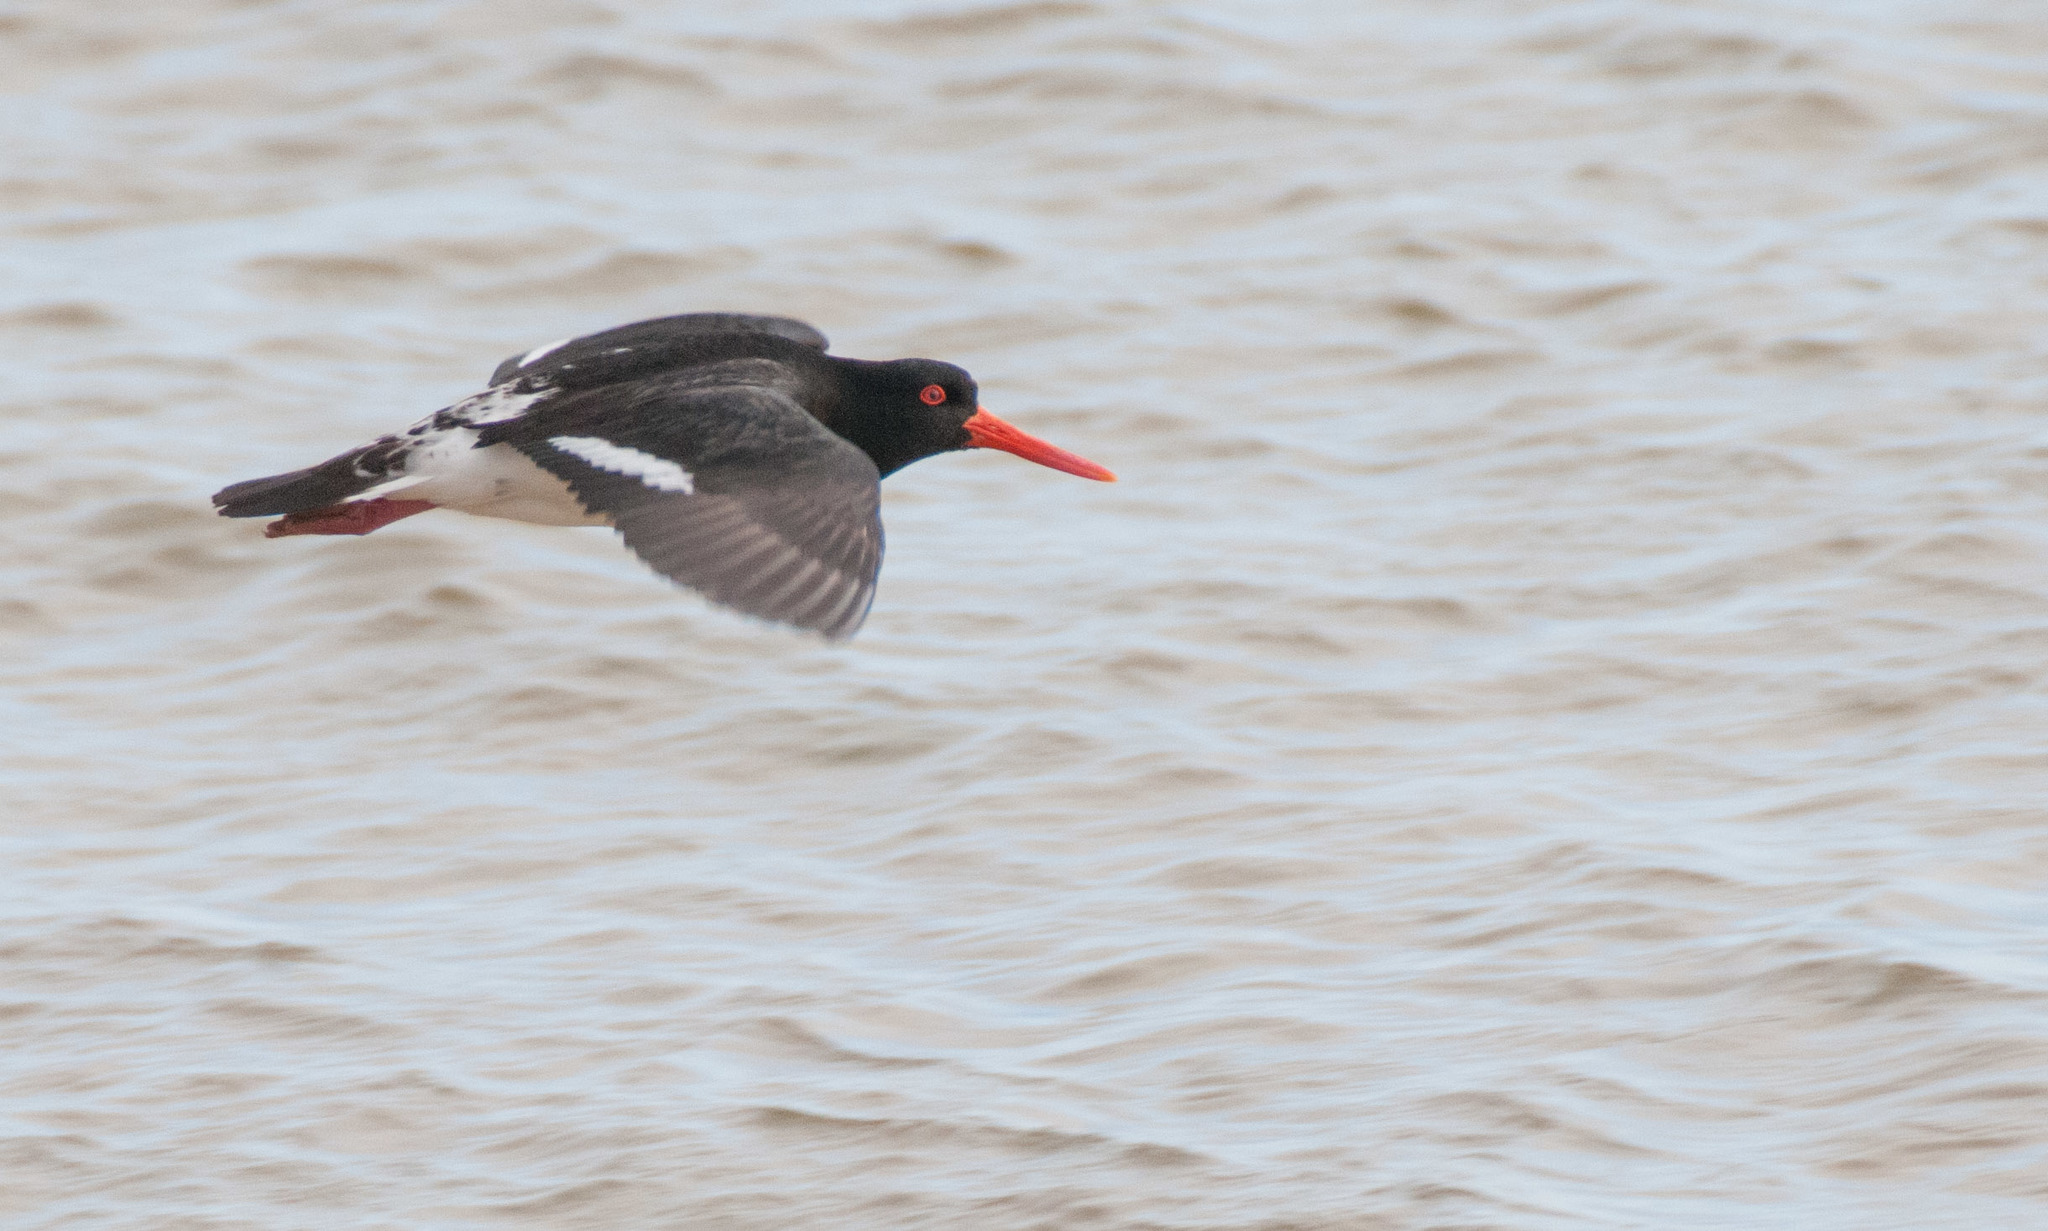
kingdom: Animalia
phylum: Chordata
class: Aves
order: Charadriiformes
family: Haematopodidae
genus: Haematopus
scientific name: Haematopus longirostris
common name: Pied oystercatcher
